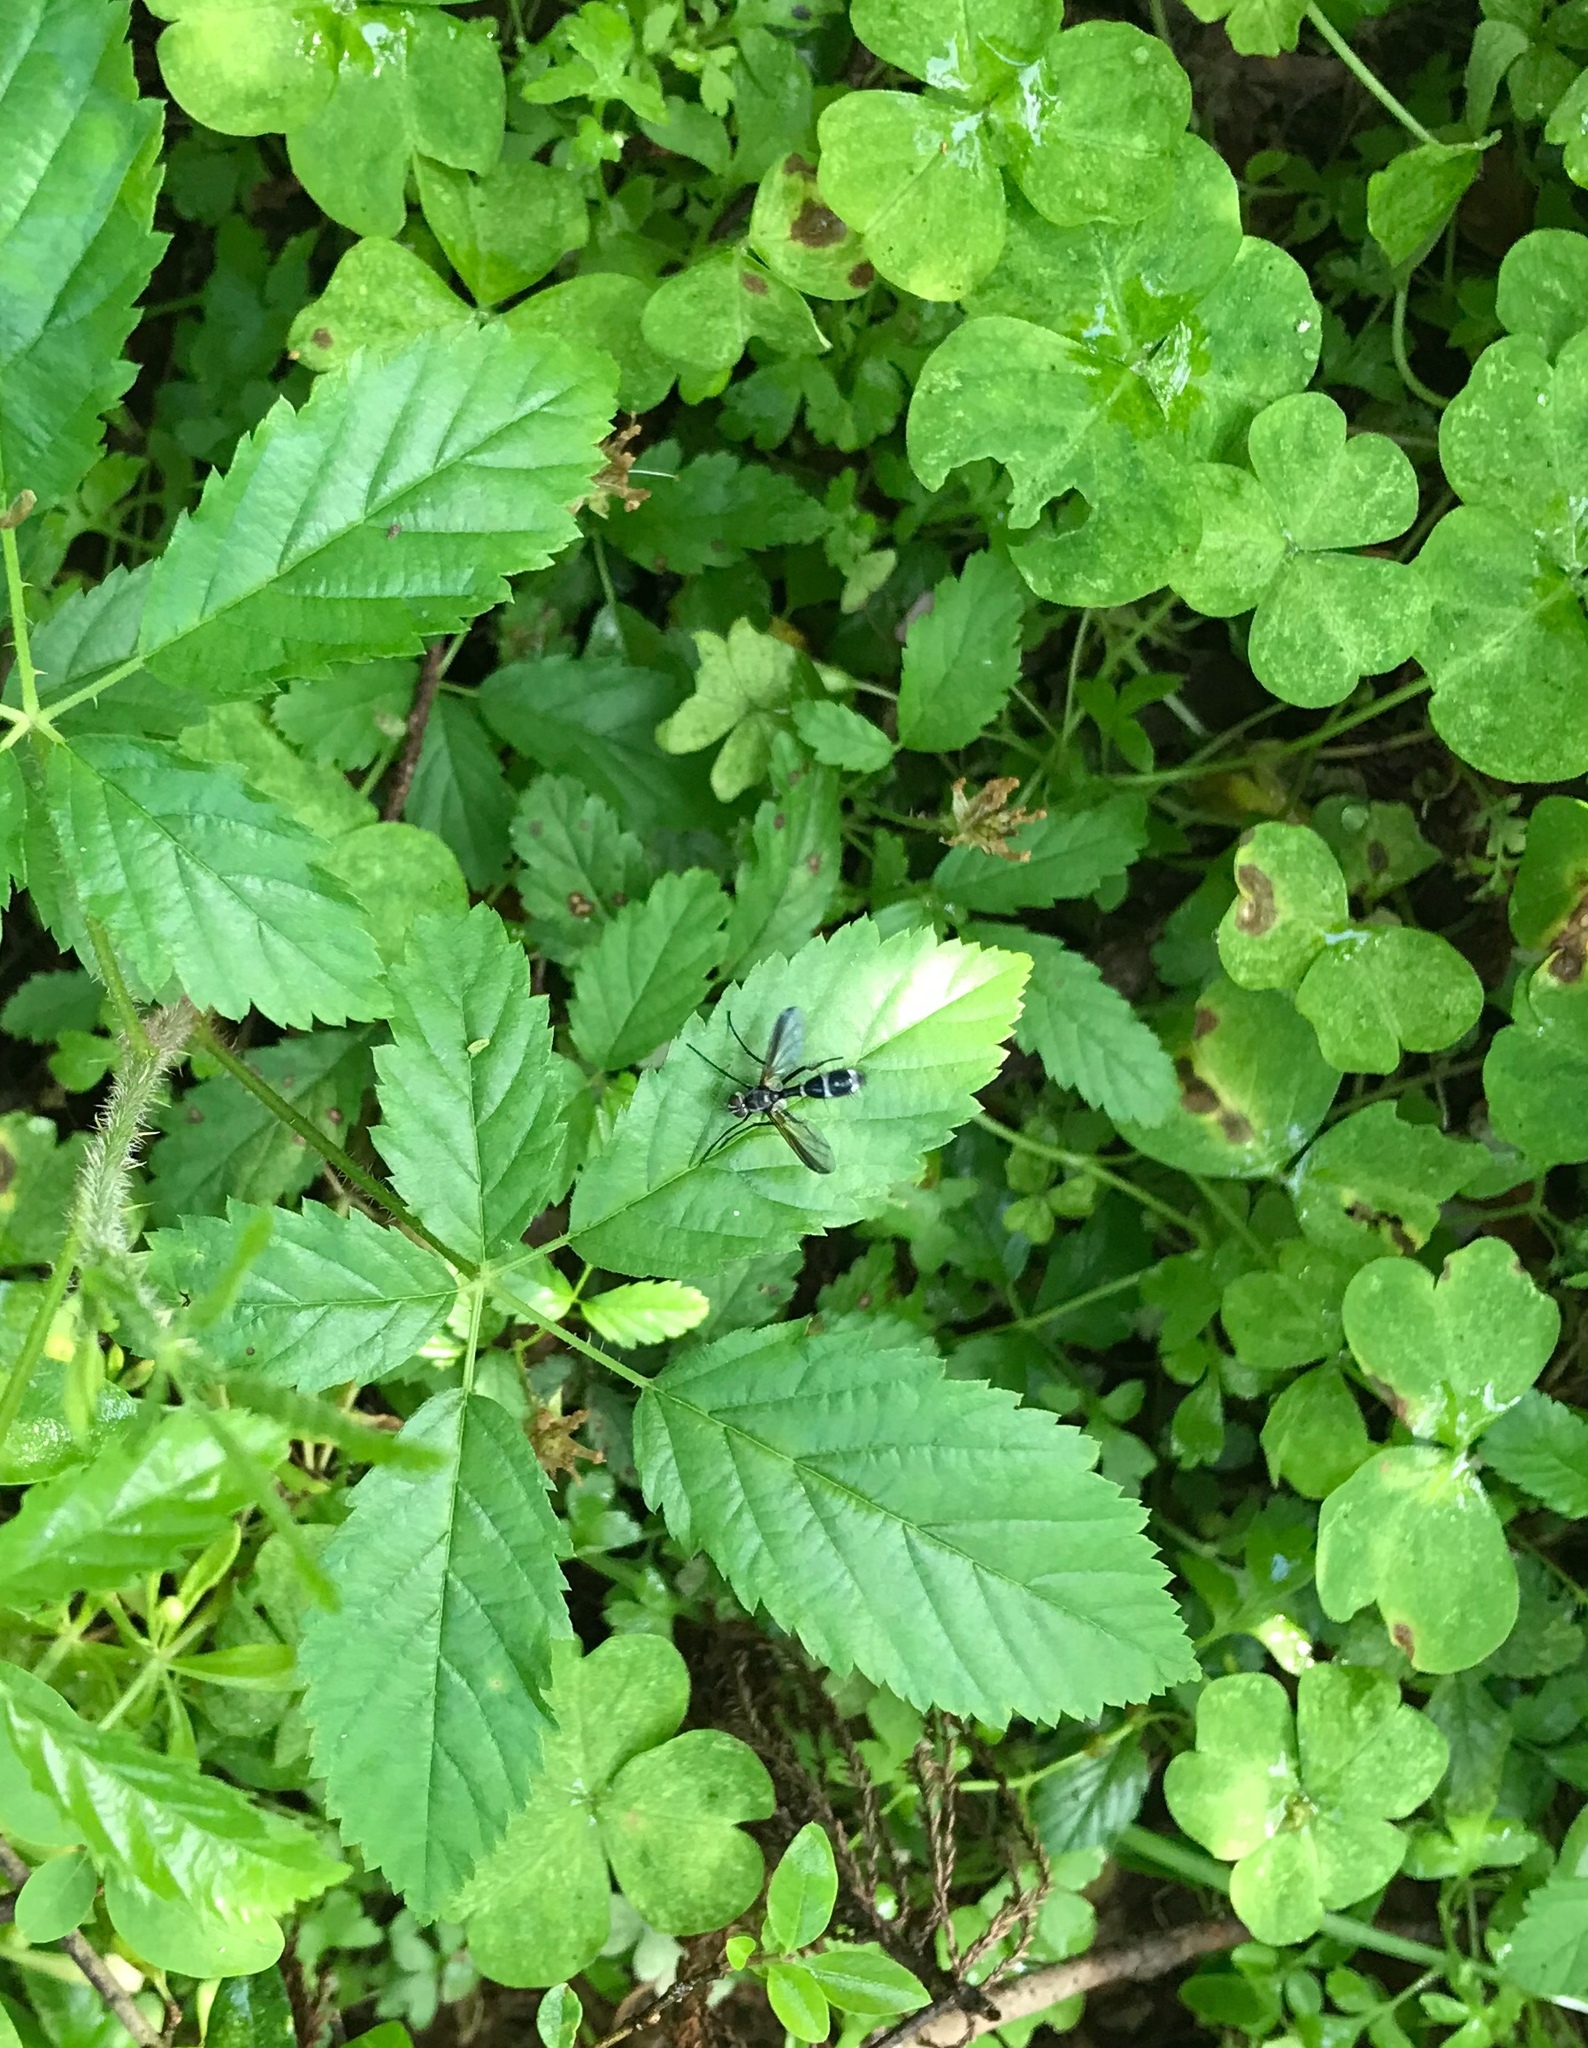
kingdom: Animalia
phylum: Arthropoda
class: Insecta
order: Diptera
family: Tachinidae
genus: Cordyligaster
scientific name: Cordyligaster septentrionalis
